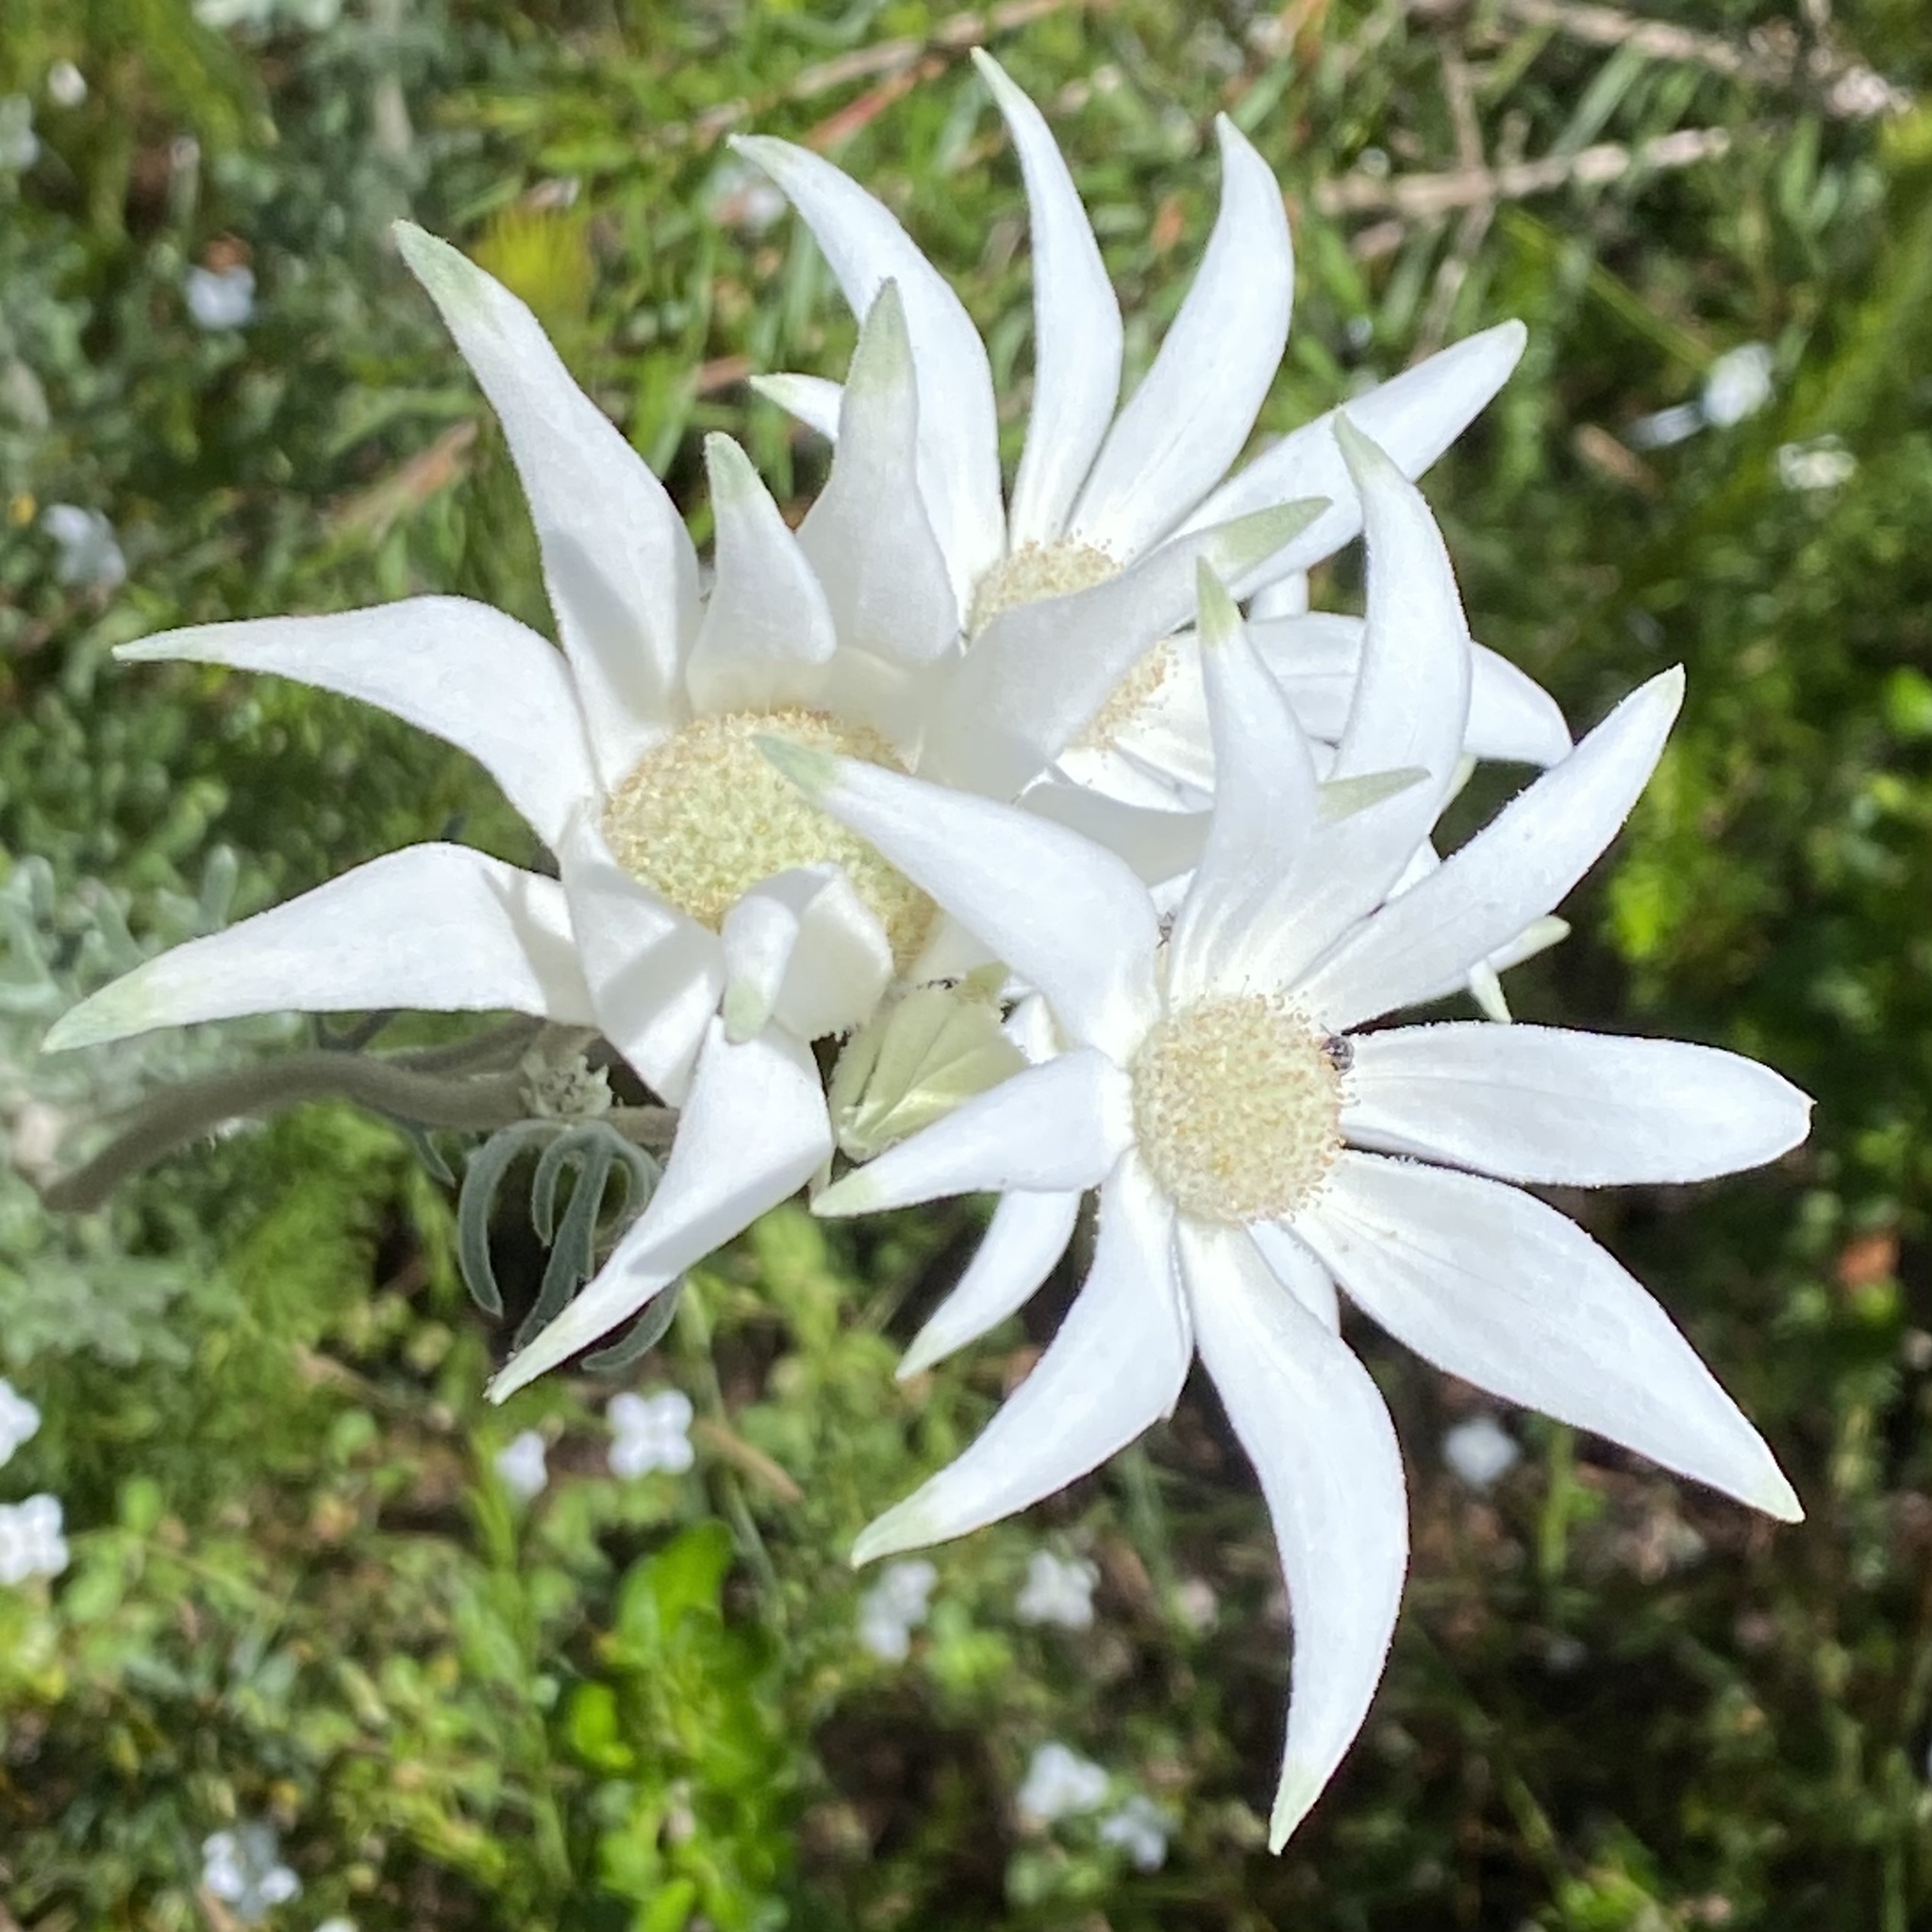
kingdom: Plantae
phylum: Tracheophyta
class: Magnoliopsida
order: Apiales
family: Apiaceae
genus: Actinotus
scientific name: Actinotus helianthi
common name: Flannel-flower
